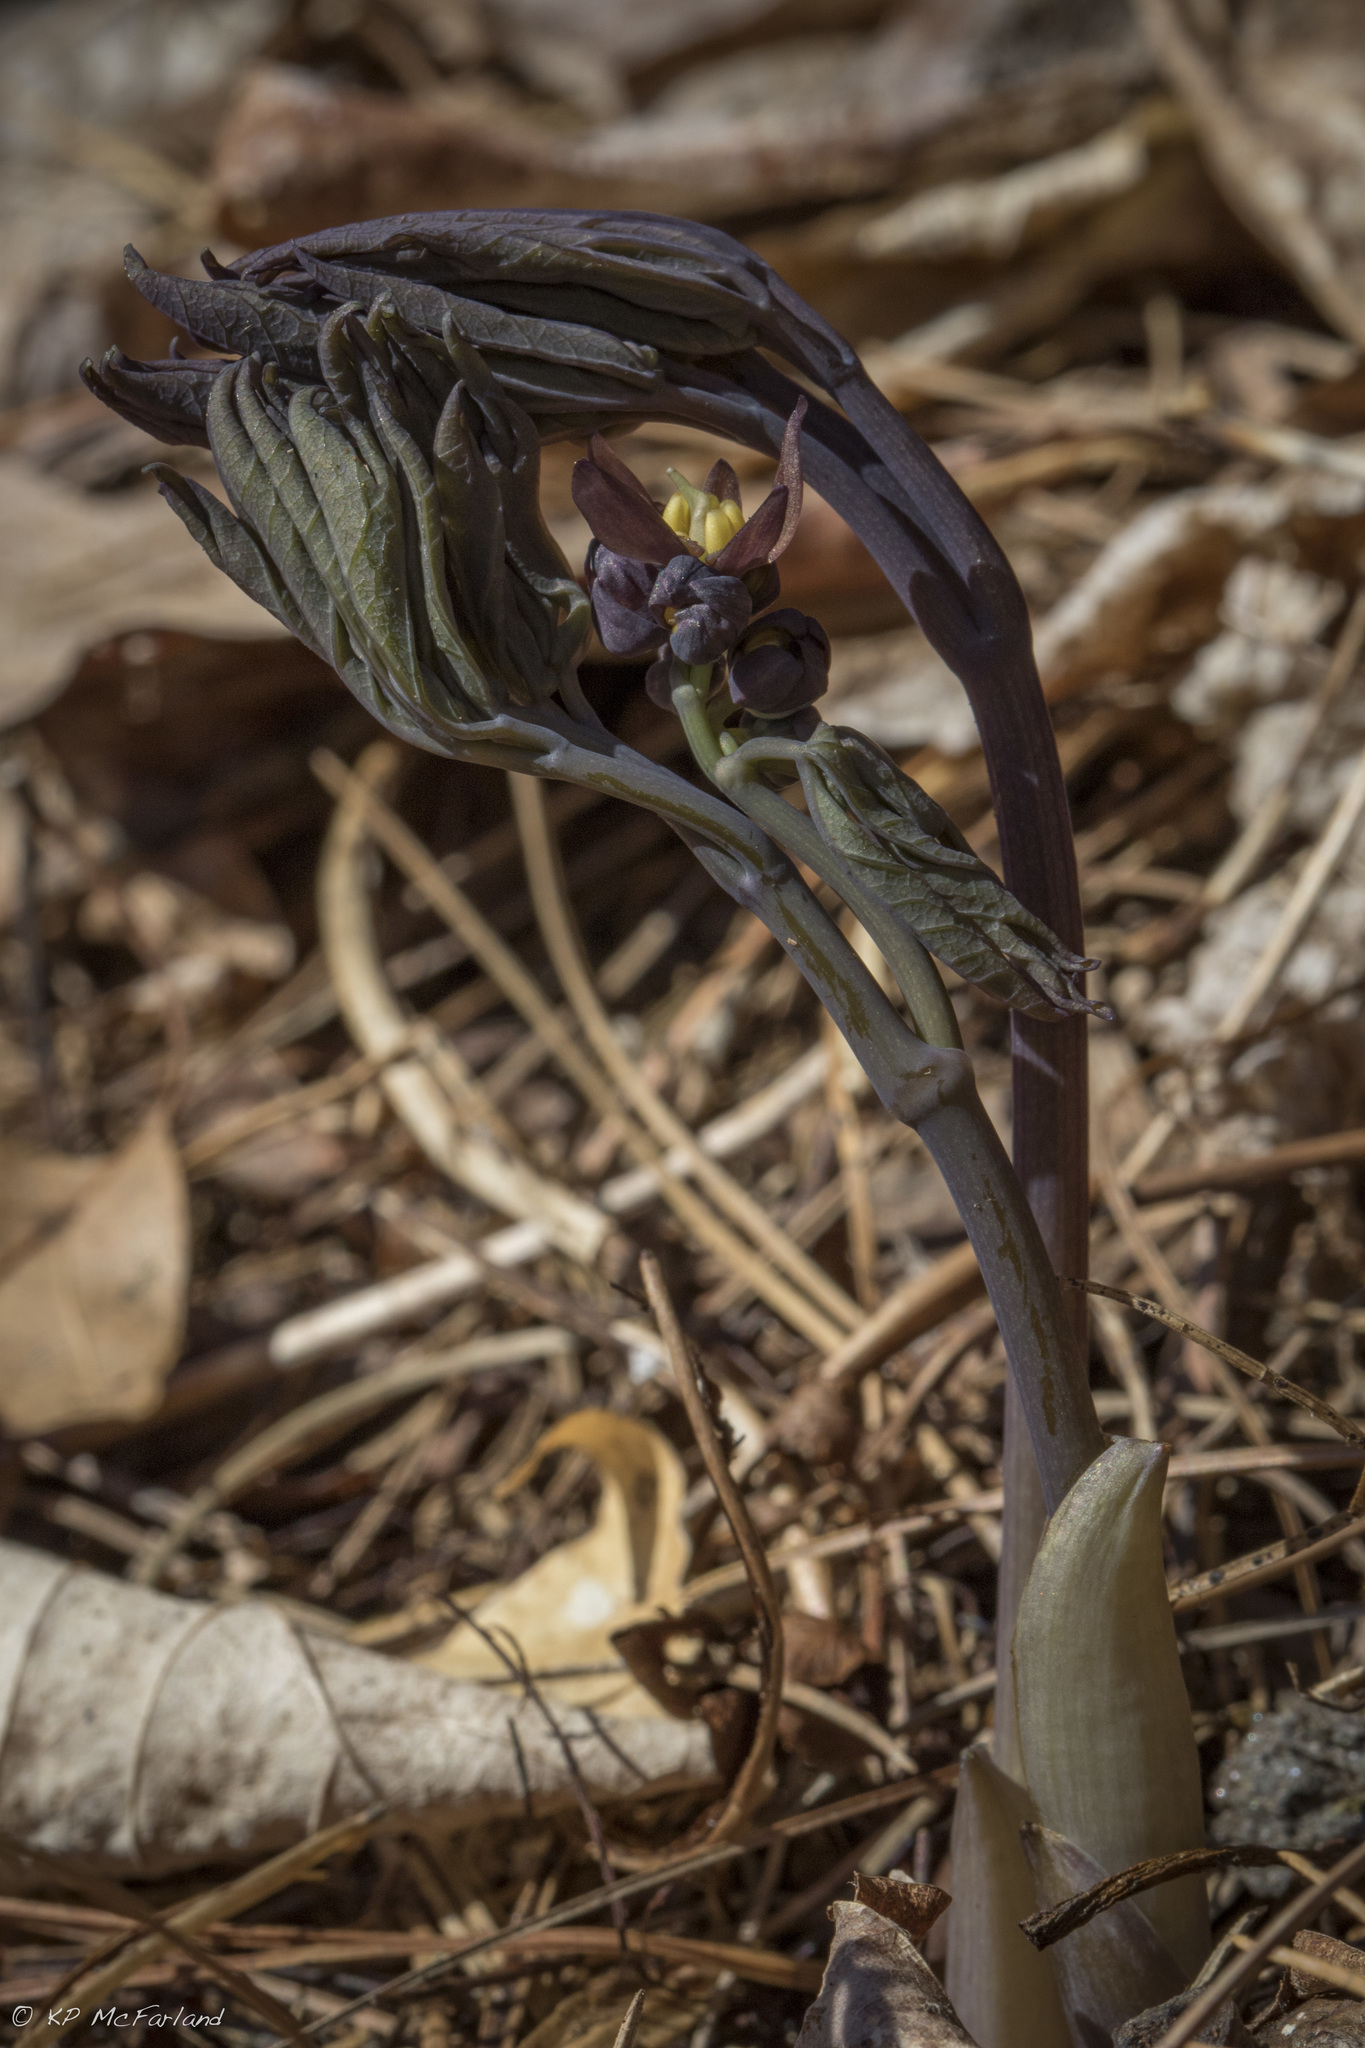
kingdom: Plantae
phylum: Tracheophyta
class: Magnoliopsida
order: Ranunculales
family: Berberidaceae
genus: Caulophyllum
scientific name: Caulophyllum giganteum
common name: Blue cohosh
